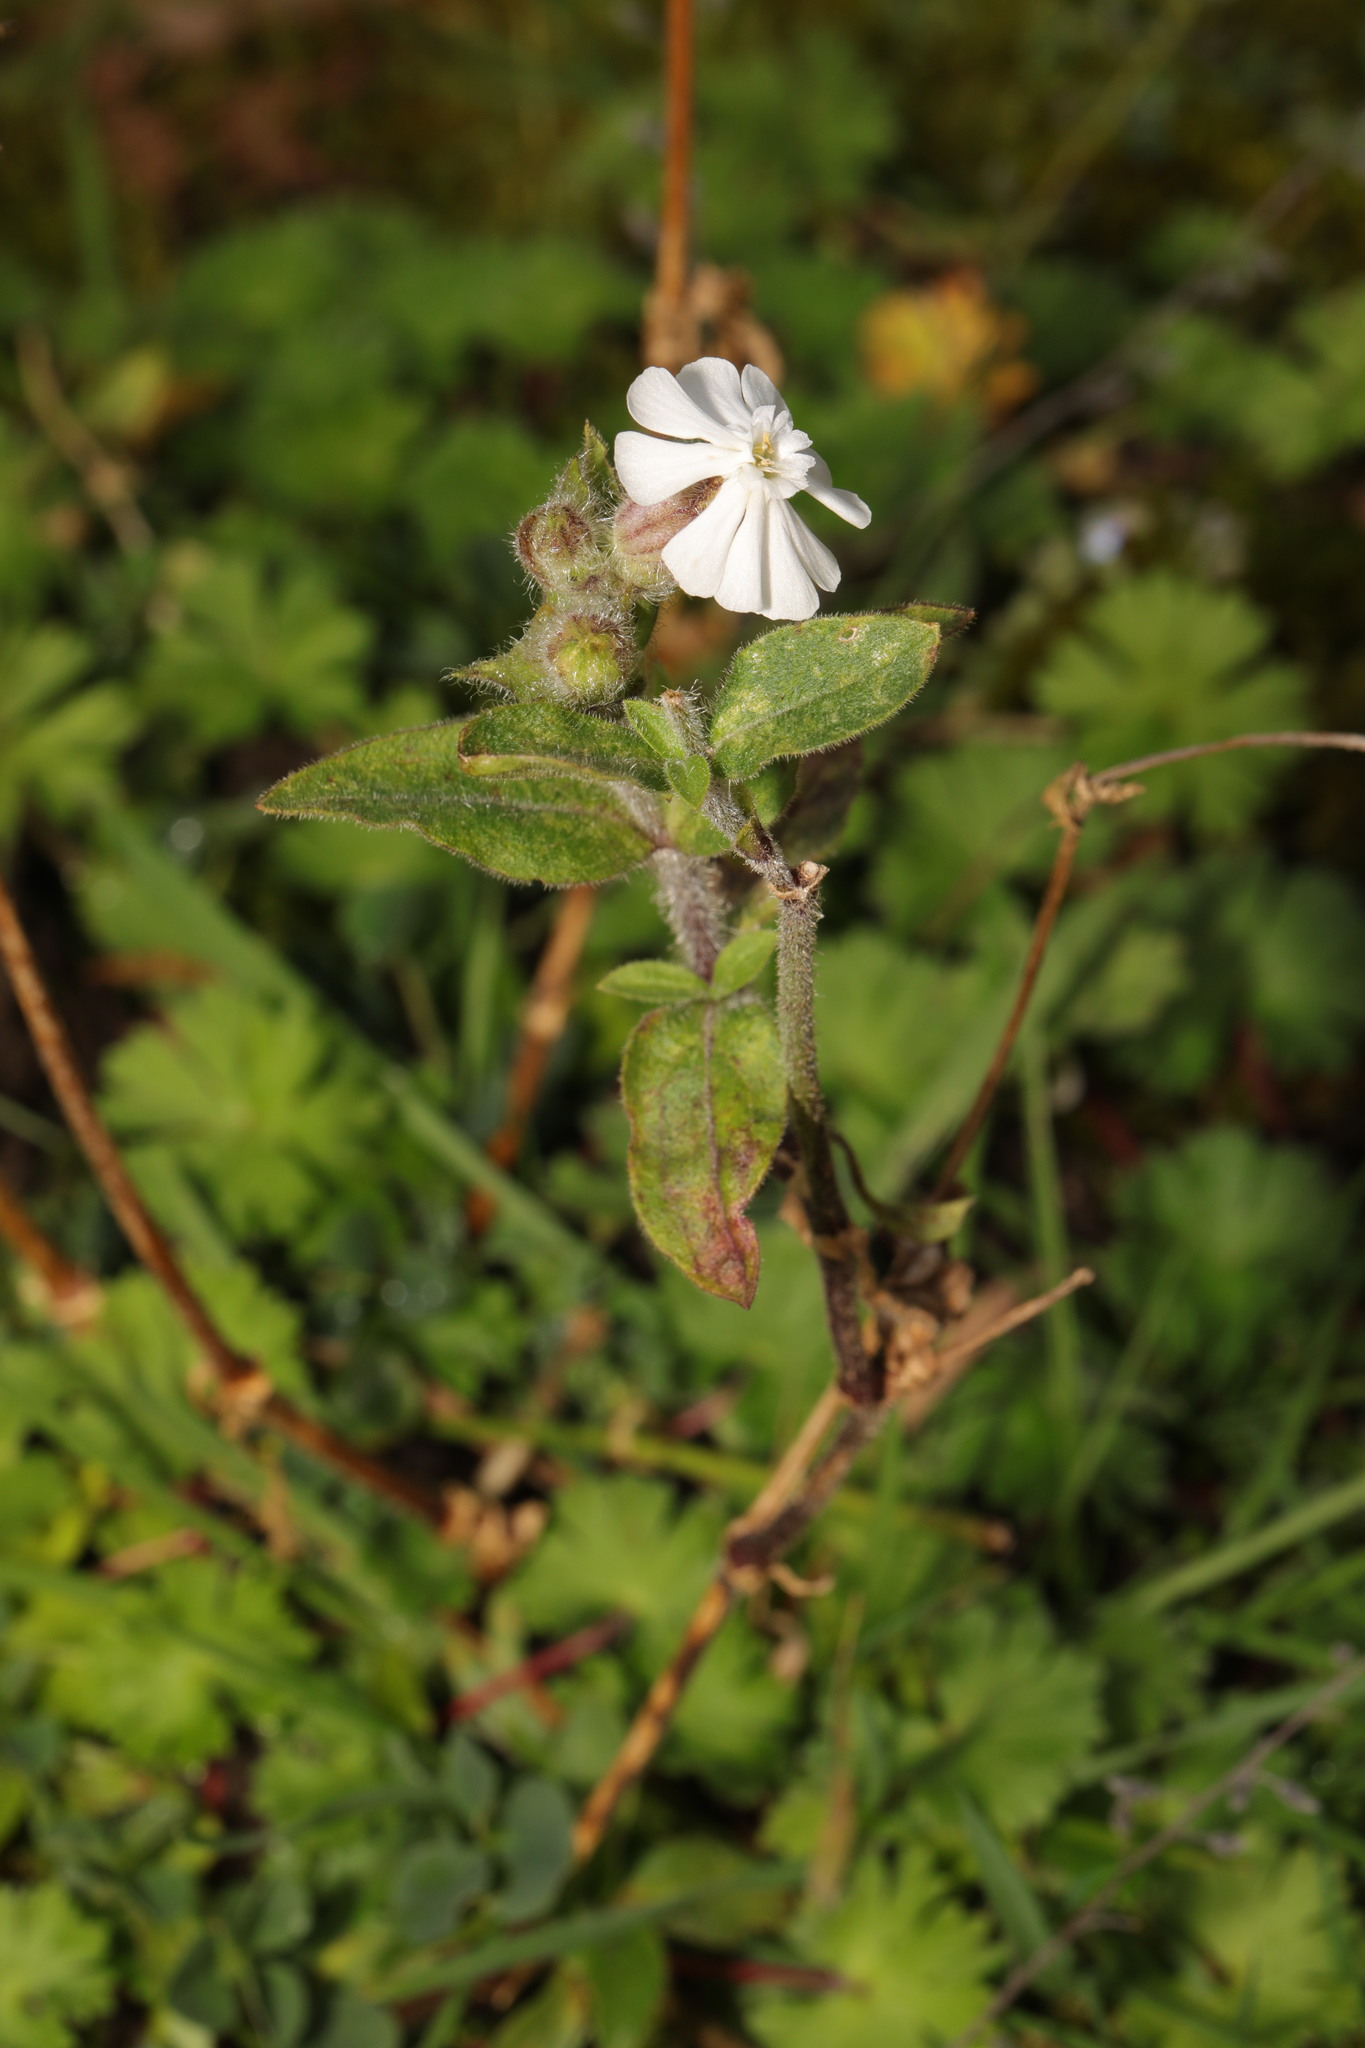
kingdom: Plantae
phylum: Tracheophyta
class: Magnoliopsida
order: Caryophyllales
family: Caryophyllaceae
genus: Silene
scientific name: Silene latifolia
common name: White campion
